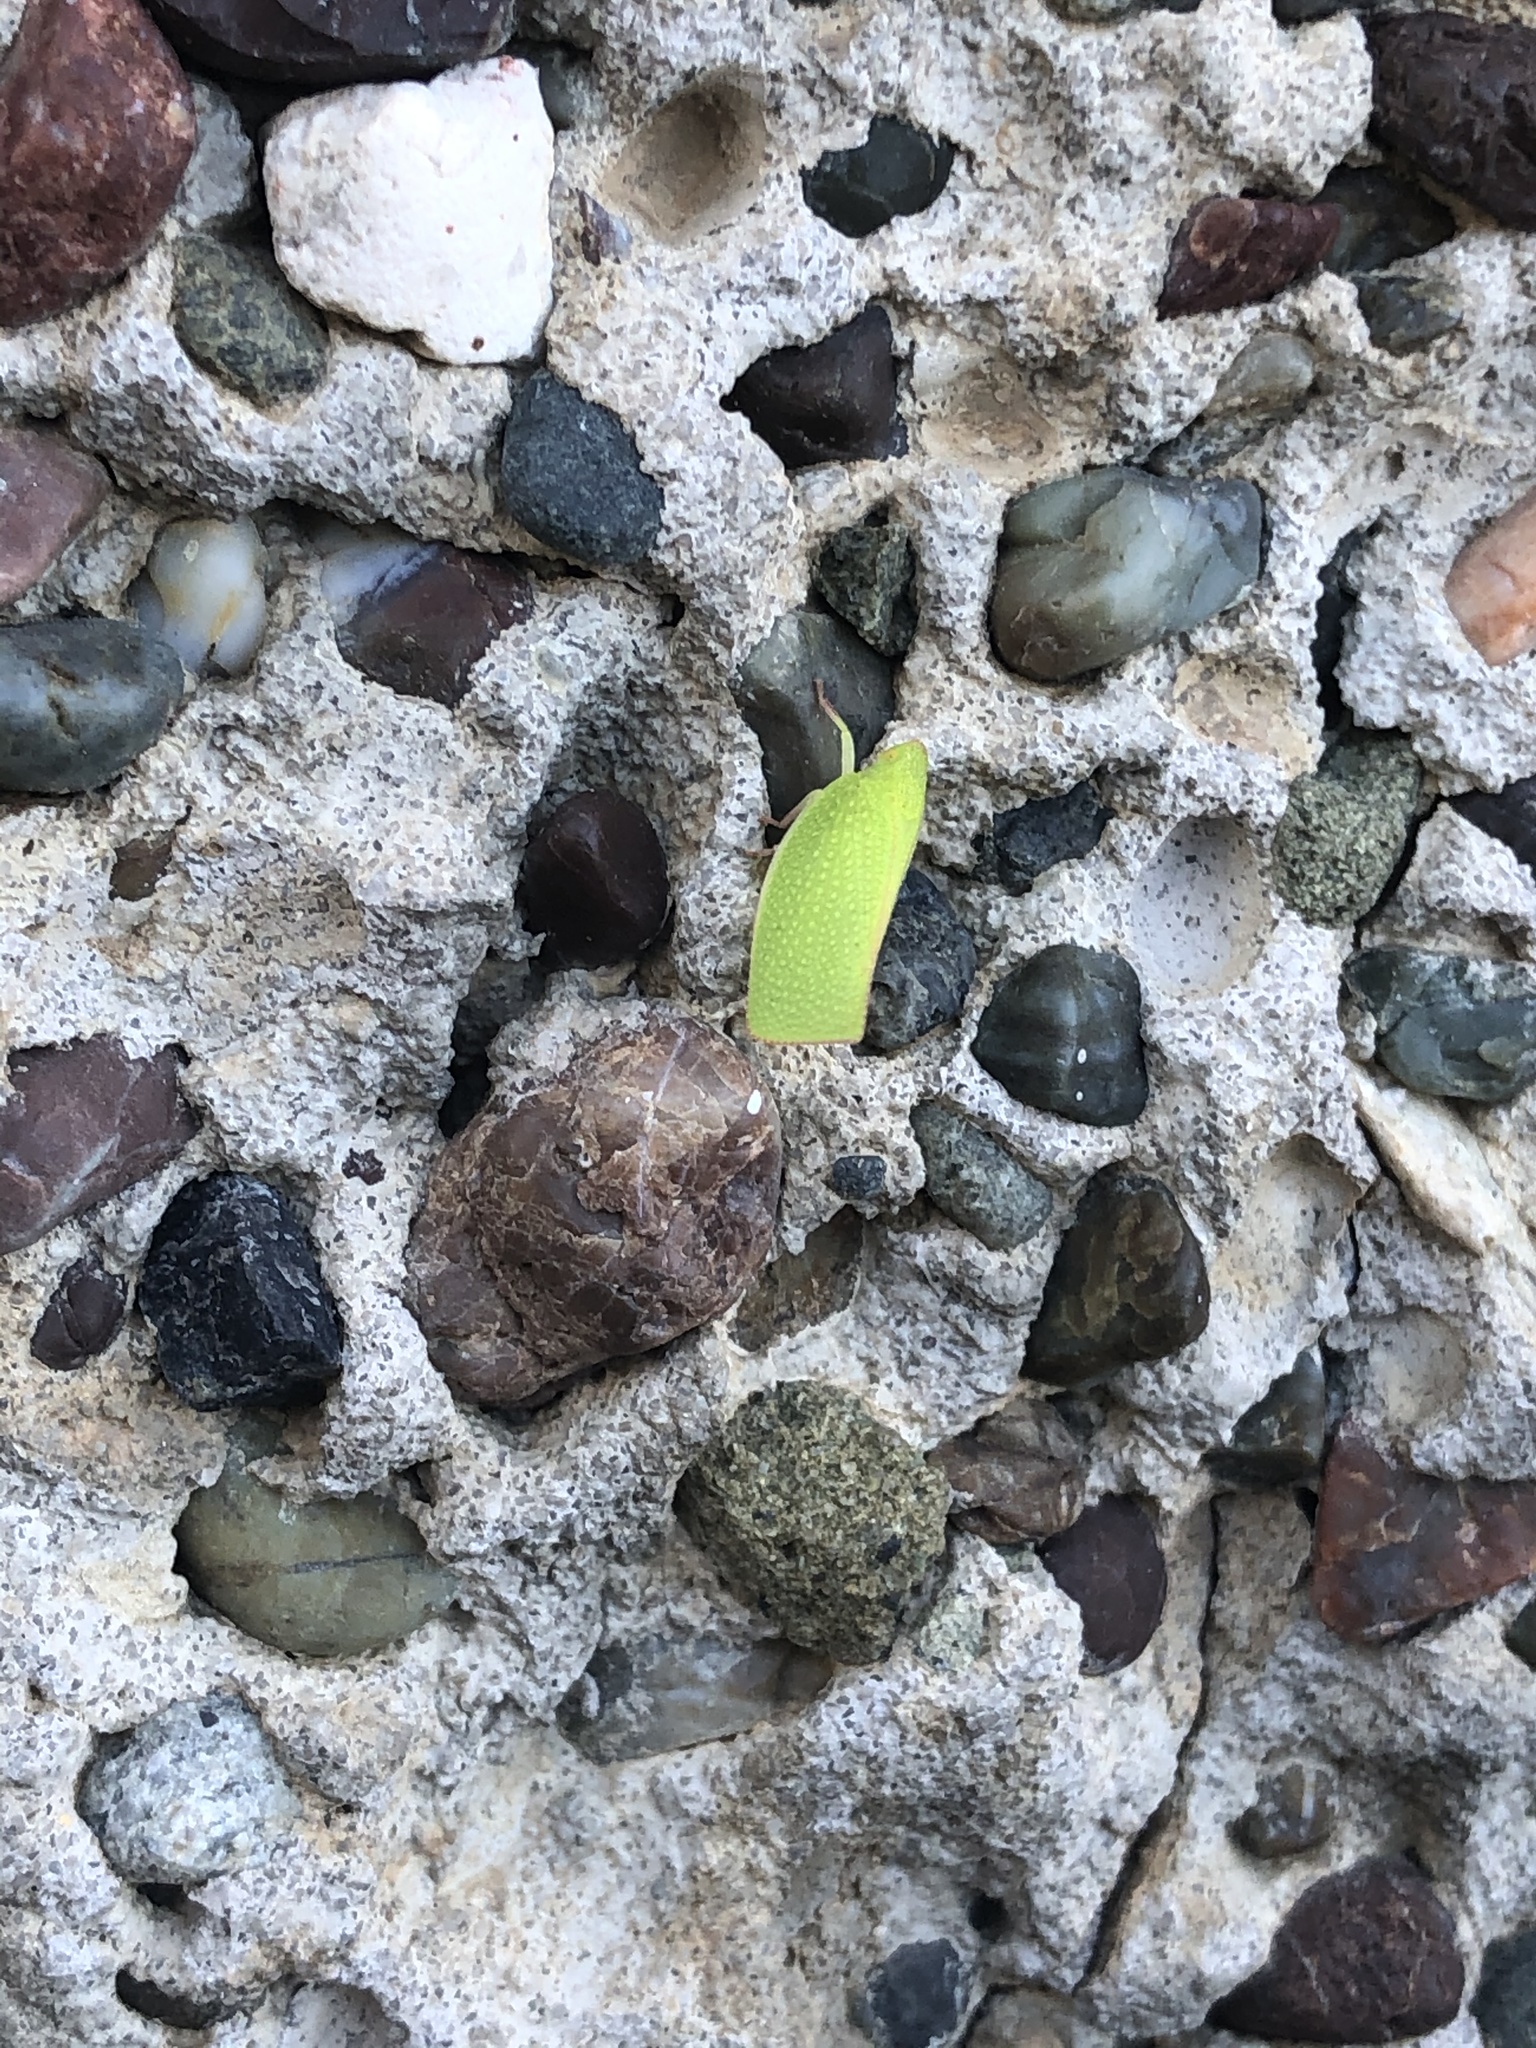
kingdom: Animalia
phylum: Arthropoda
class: Insecta
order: Hemiptera
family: Flatidae
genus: Siphanta
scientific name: Siphanta acuta
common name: Torpedo bug
